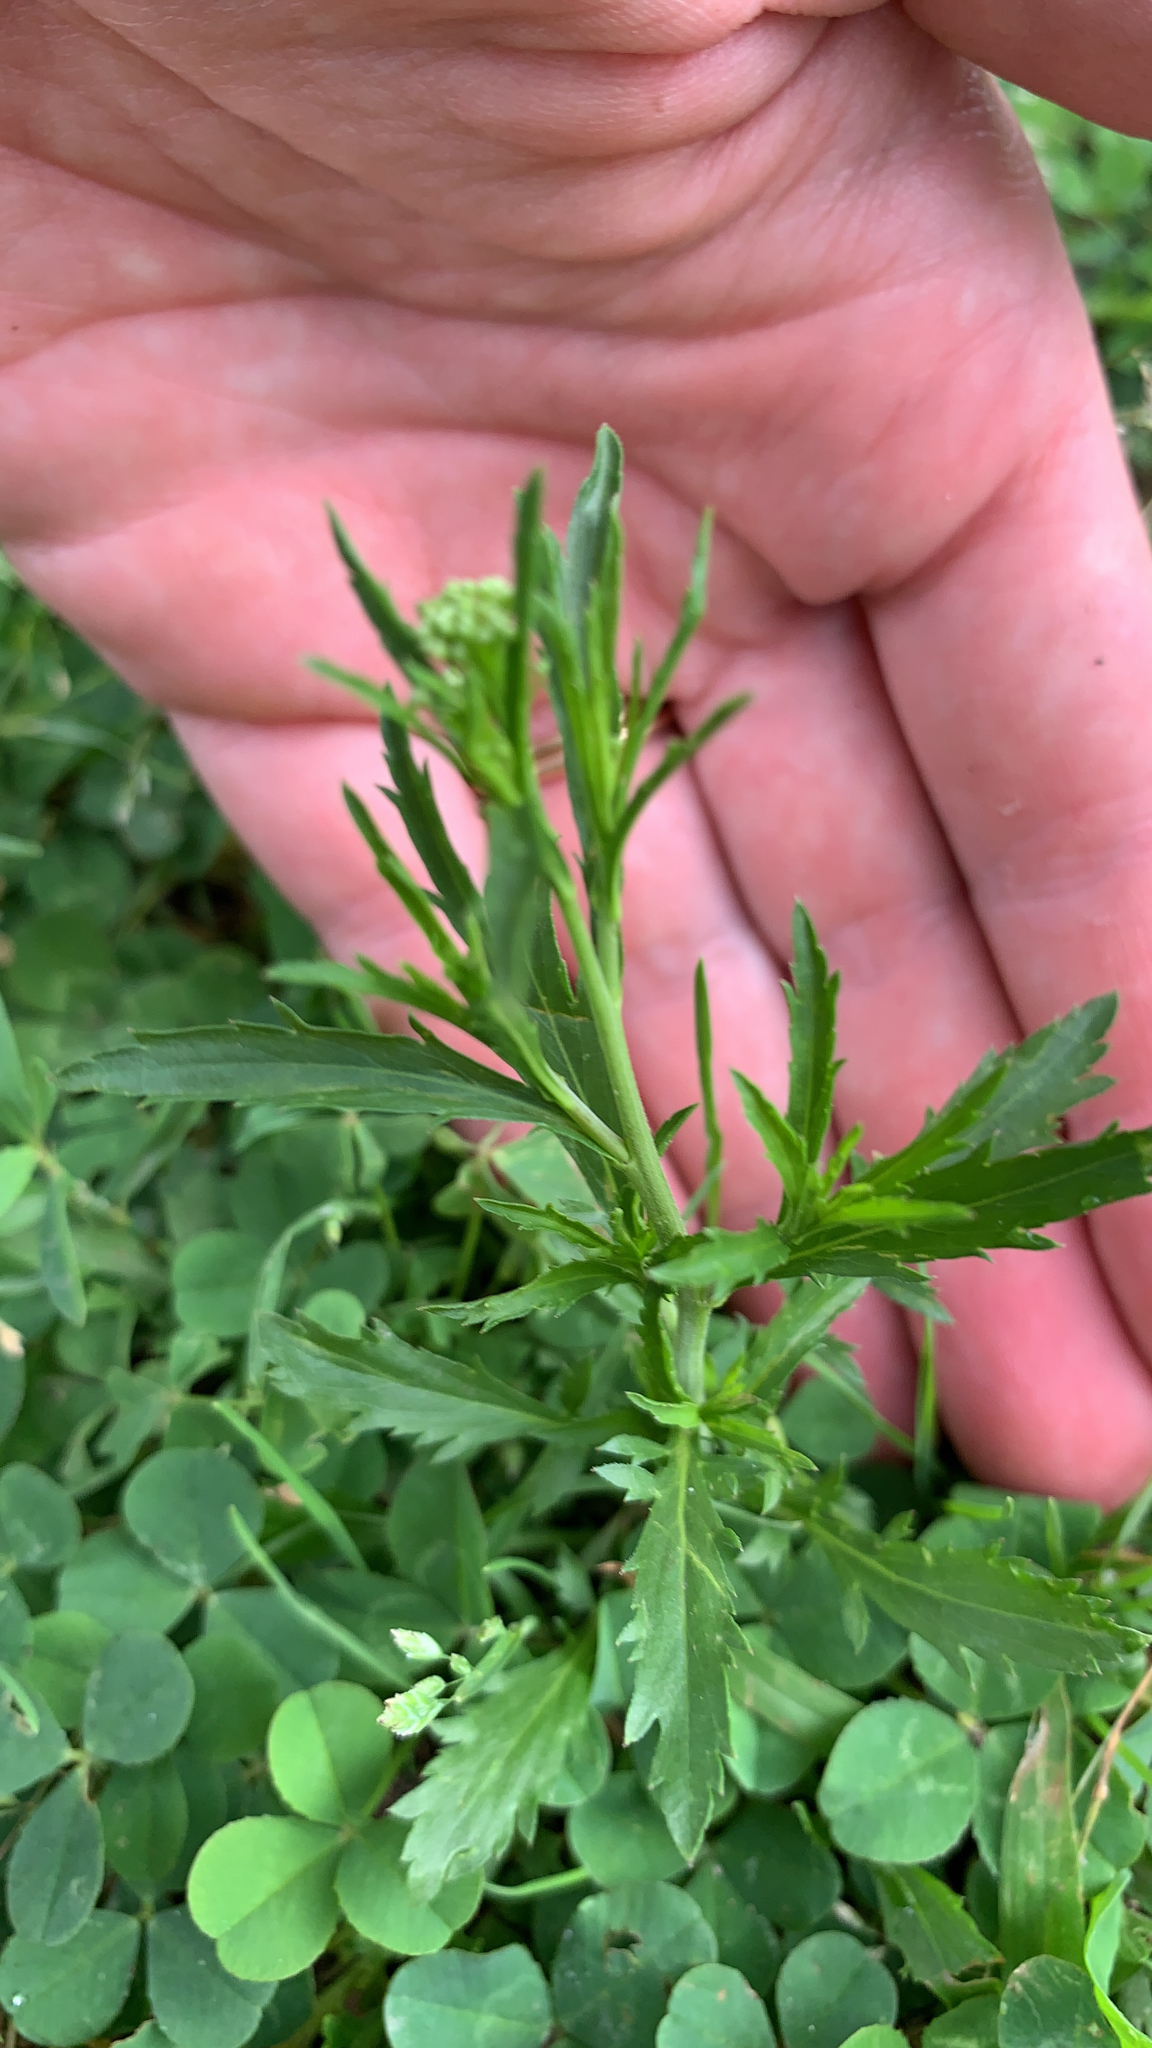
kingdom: Plantae
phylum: Tracheophyta
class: Magnoliopsida
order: Brassicales
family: Brassicaceae
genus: Lepidium
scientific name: Lepidium virginicum
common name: Least pepperwort
